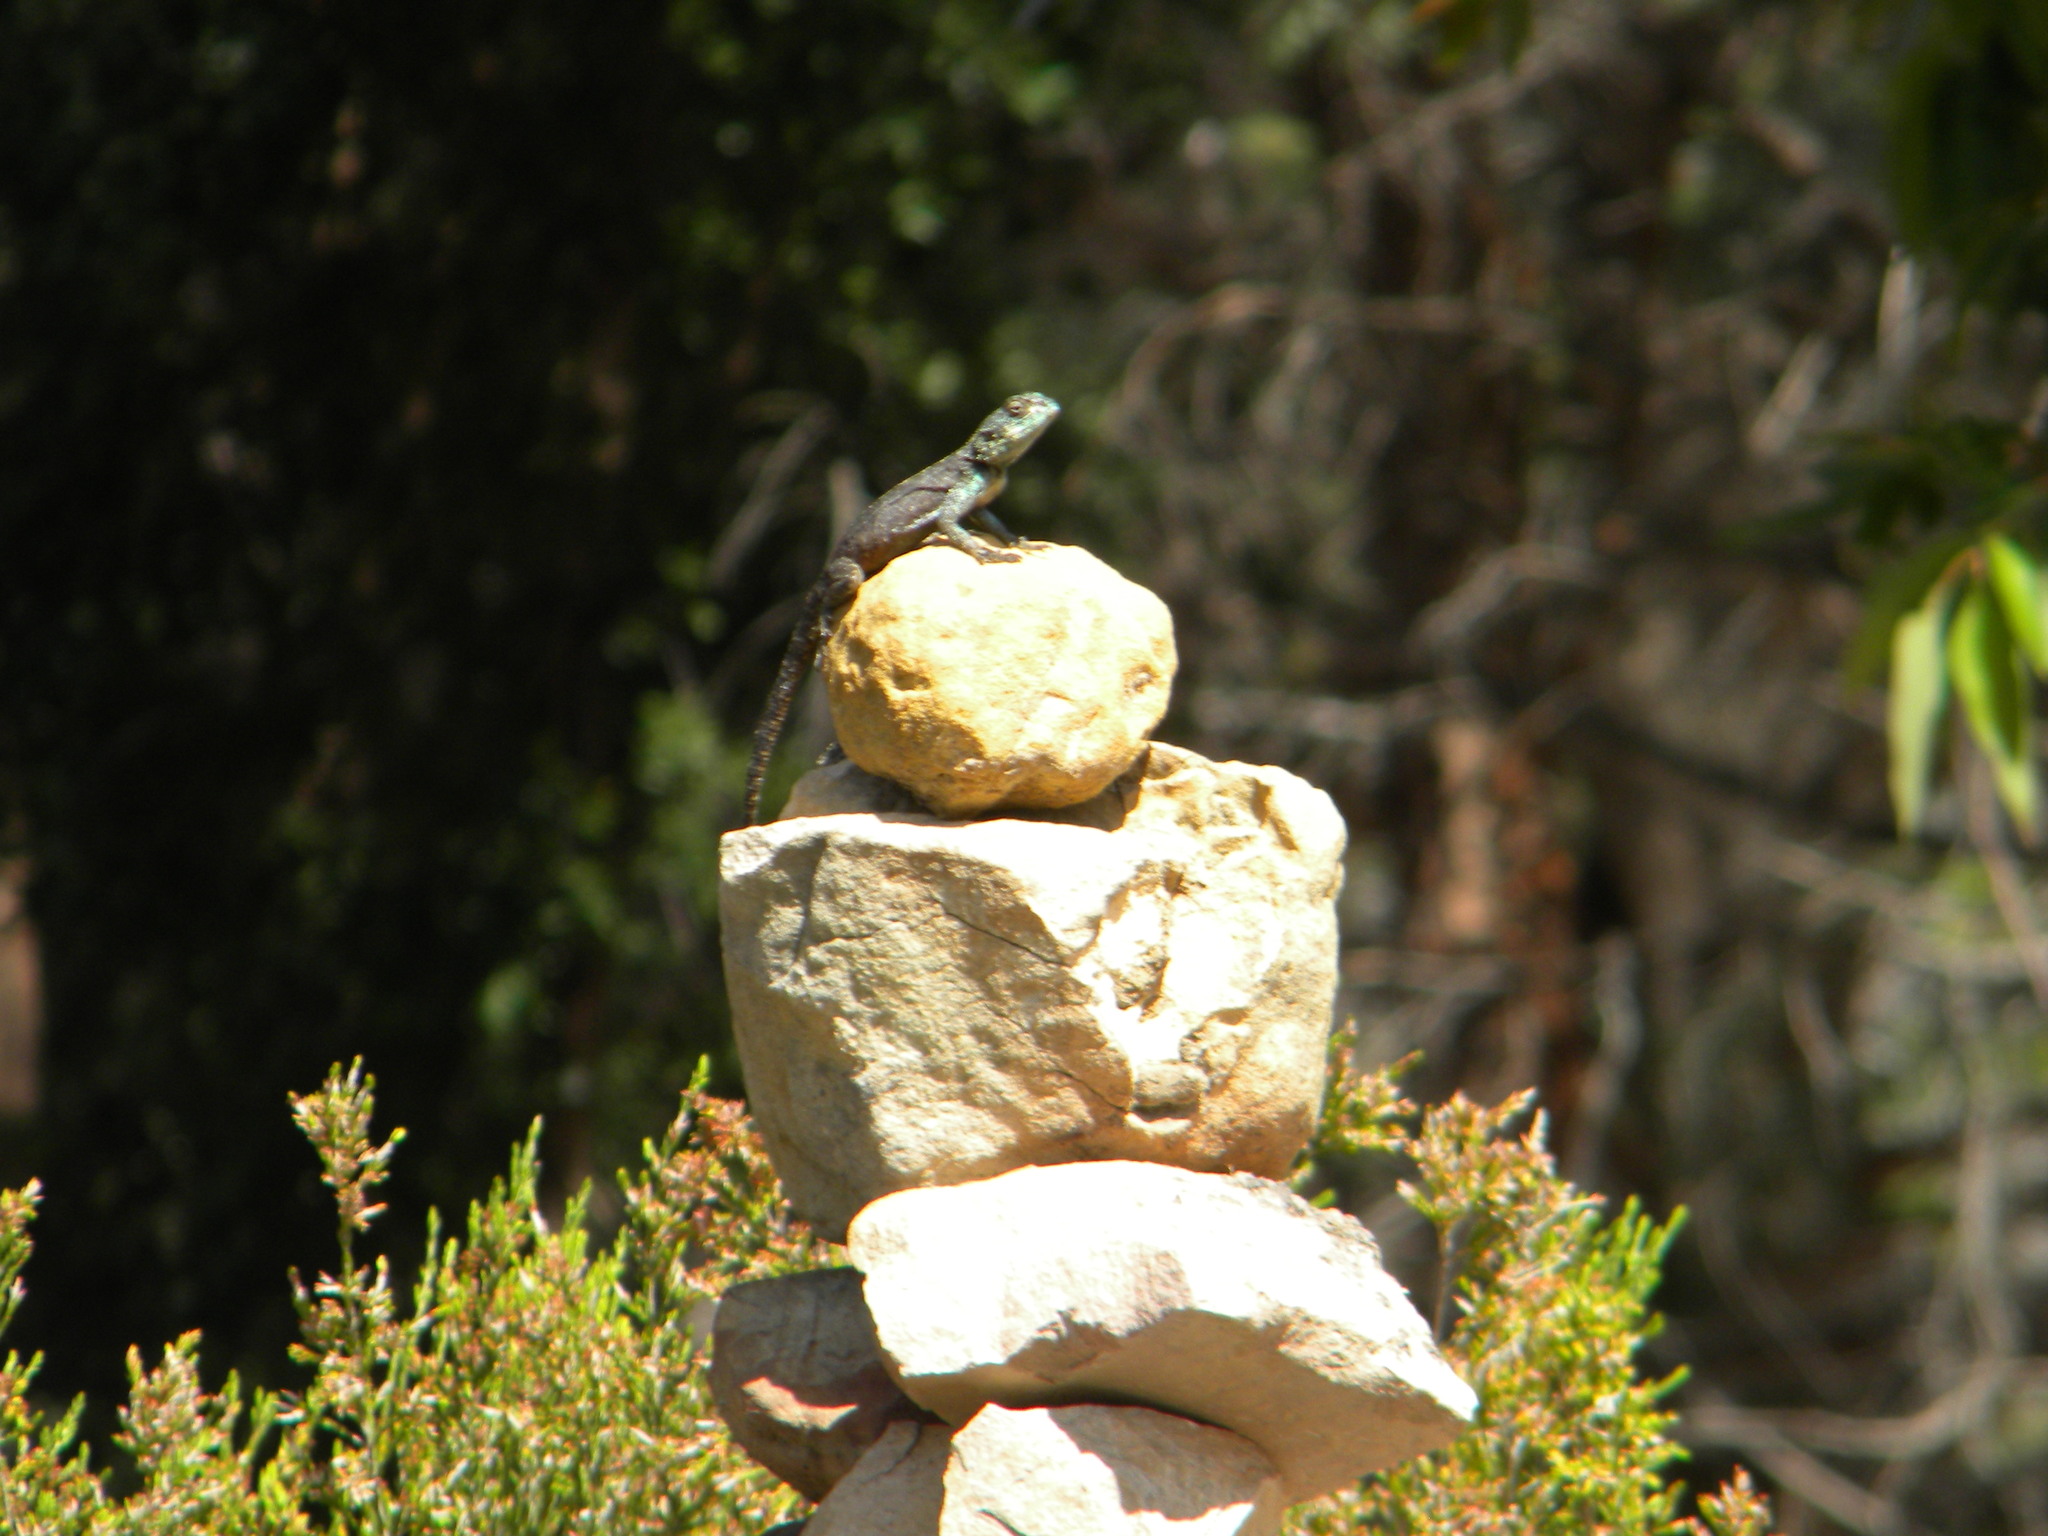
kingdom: Animalia
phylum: Chordata
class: Squamata
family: Agamidae
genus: Agama
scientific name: Agama atra
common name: Southern african rock agama
